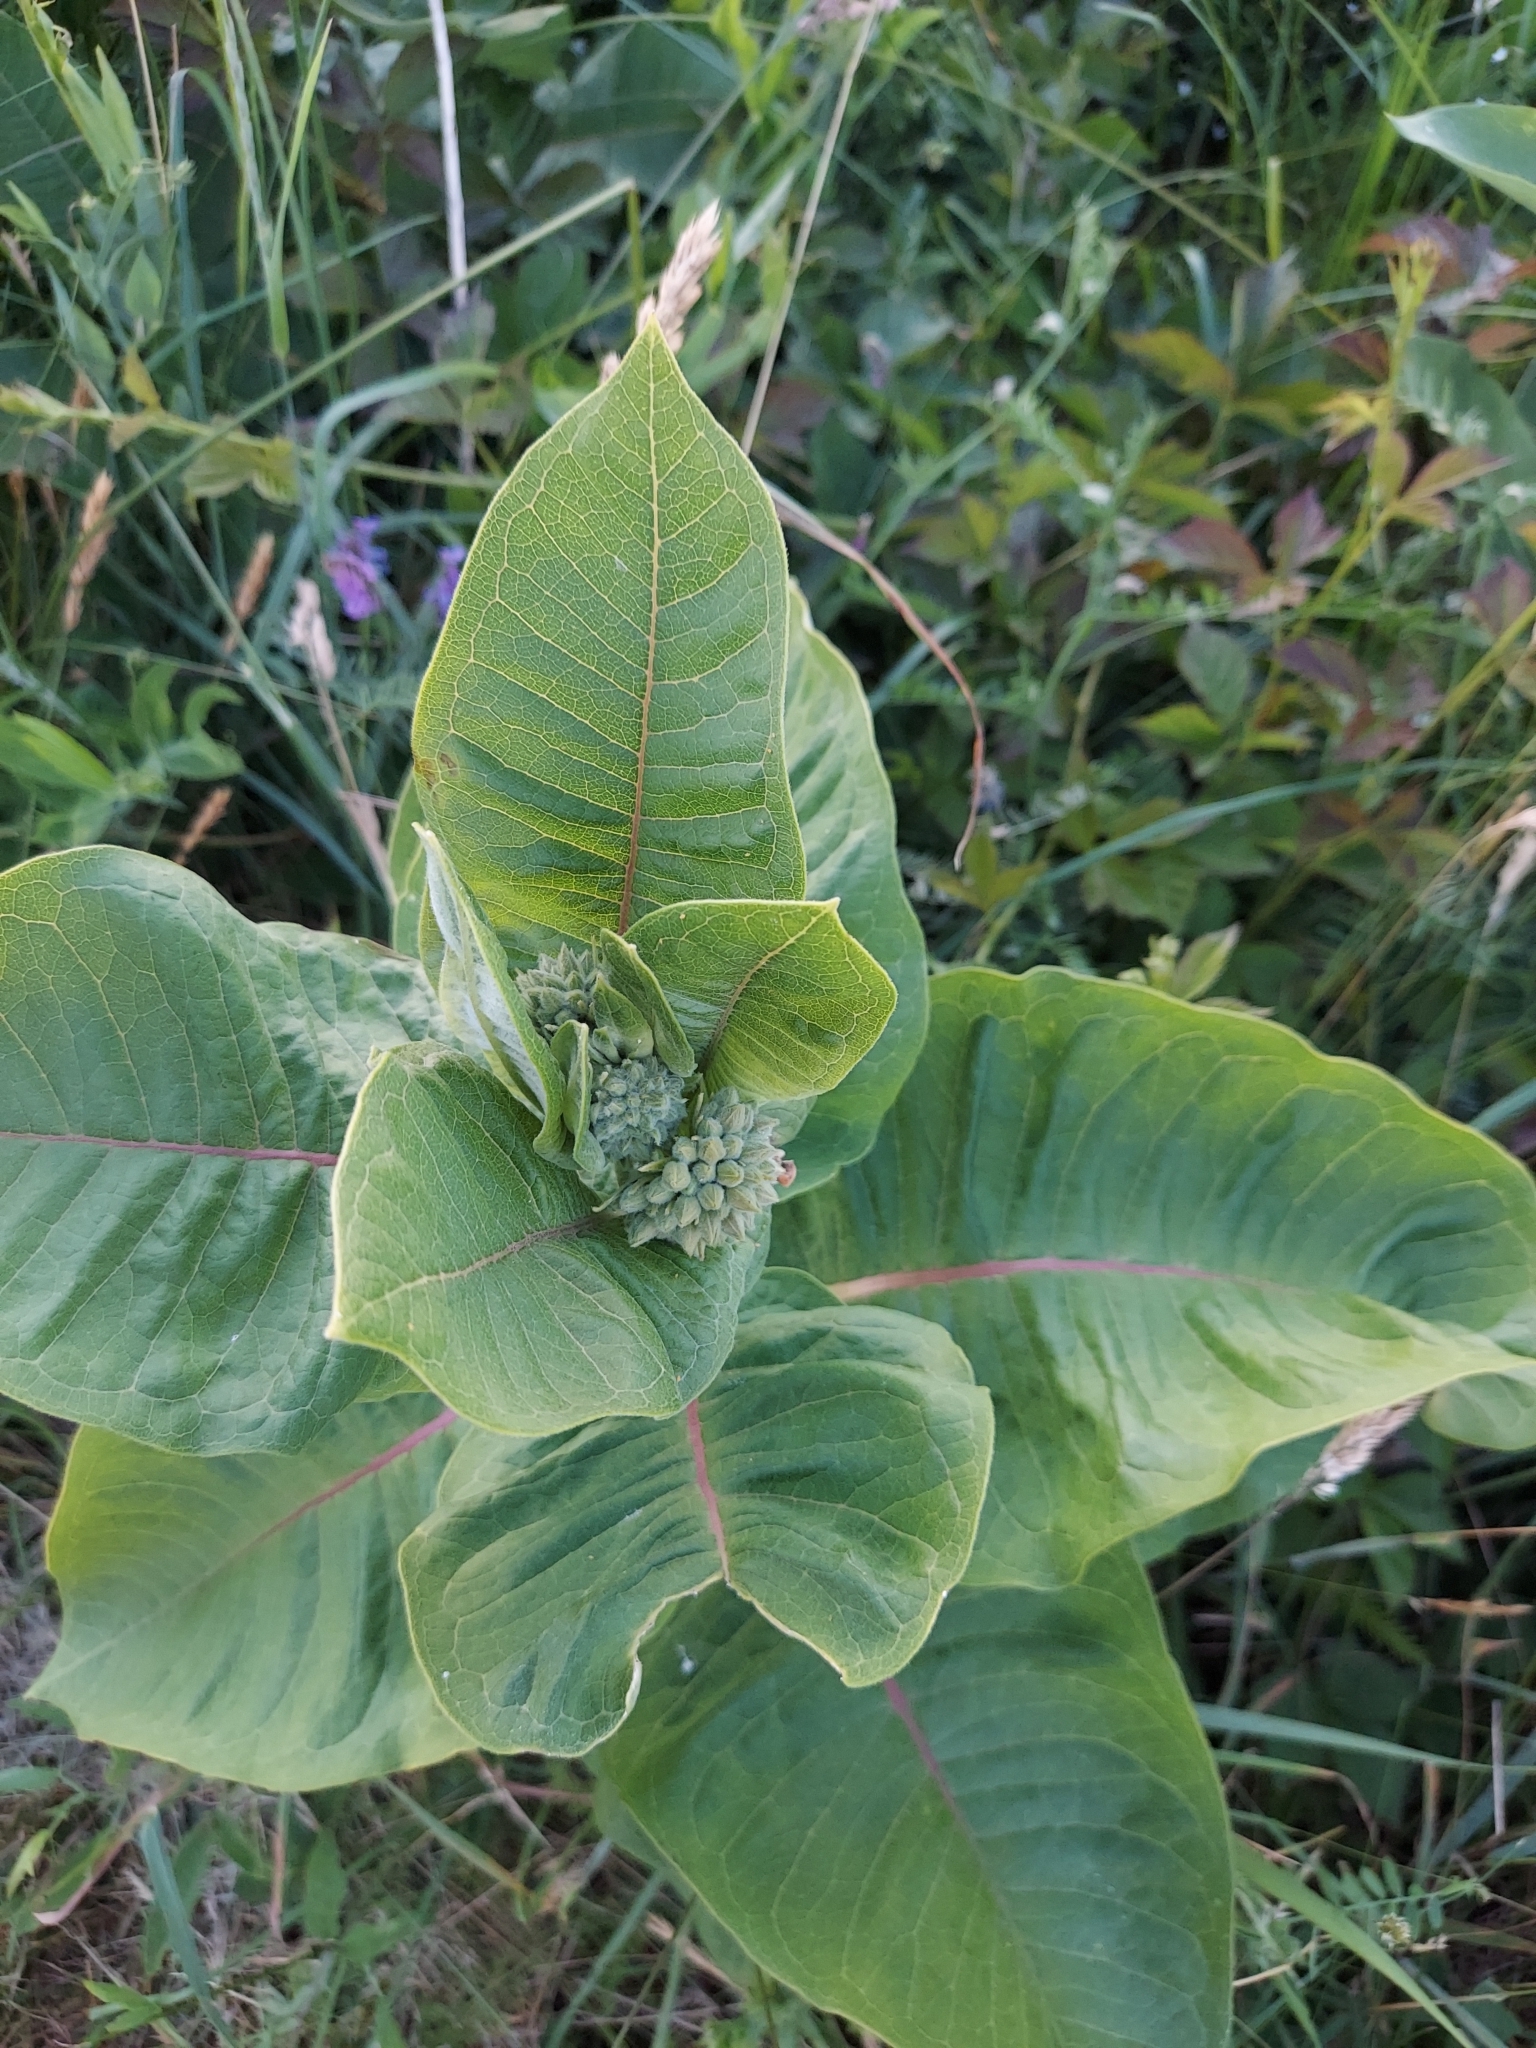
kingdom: Plantae
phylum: Tracheophyta
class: Magnoliopsida
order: Gentianales
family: Apocynaceae
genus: Asclepias
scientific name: Asclepias syriaca
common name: Common milkweed
